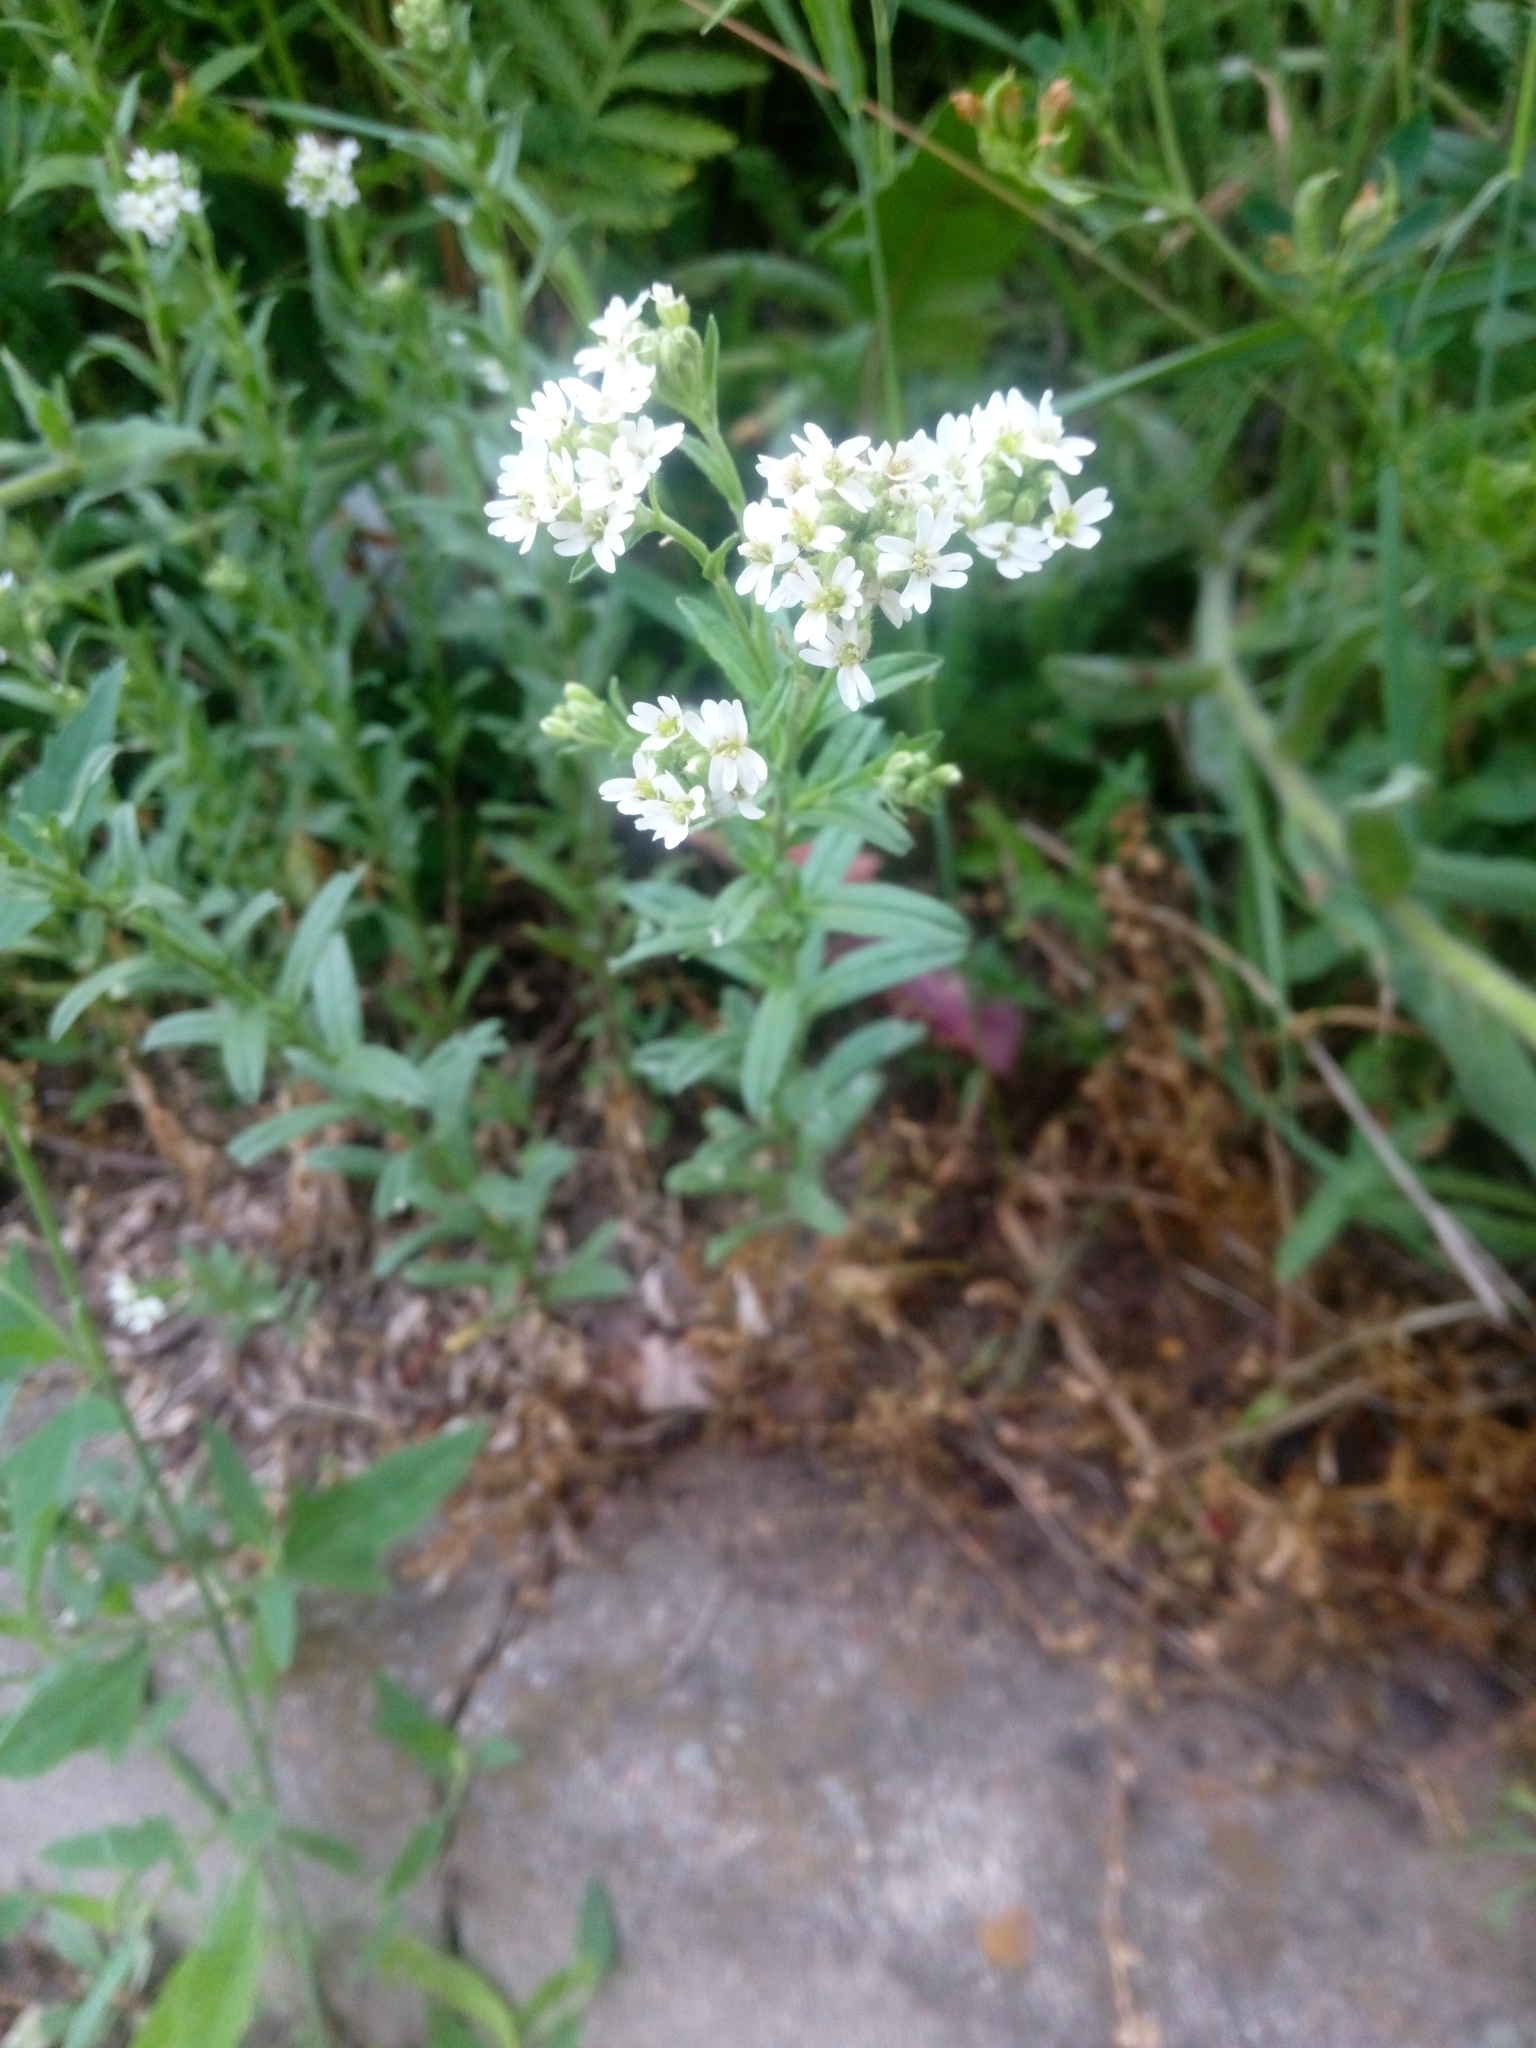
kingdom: Plantae
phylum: Tracheophyta
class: Magnoliopsida
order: Brassicales
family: Brassicaceae
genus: Berteroa
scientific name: Berteroa incana
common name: Hoary alison
